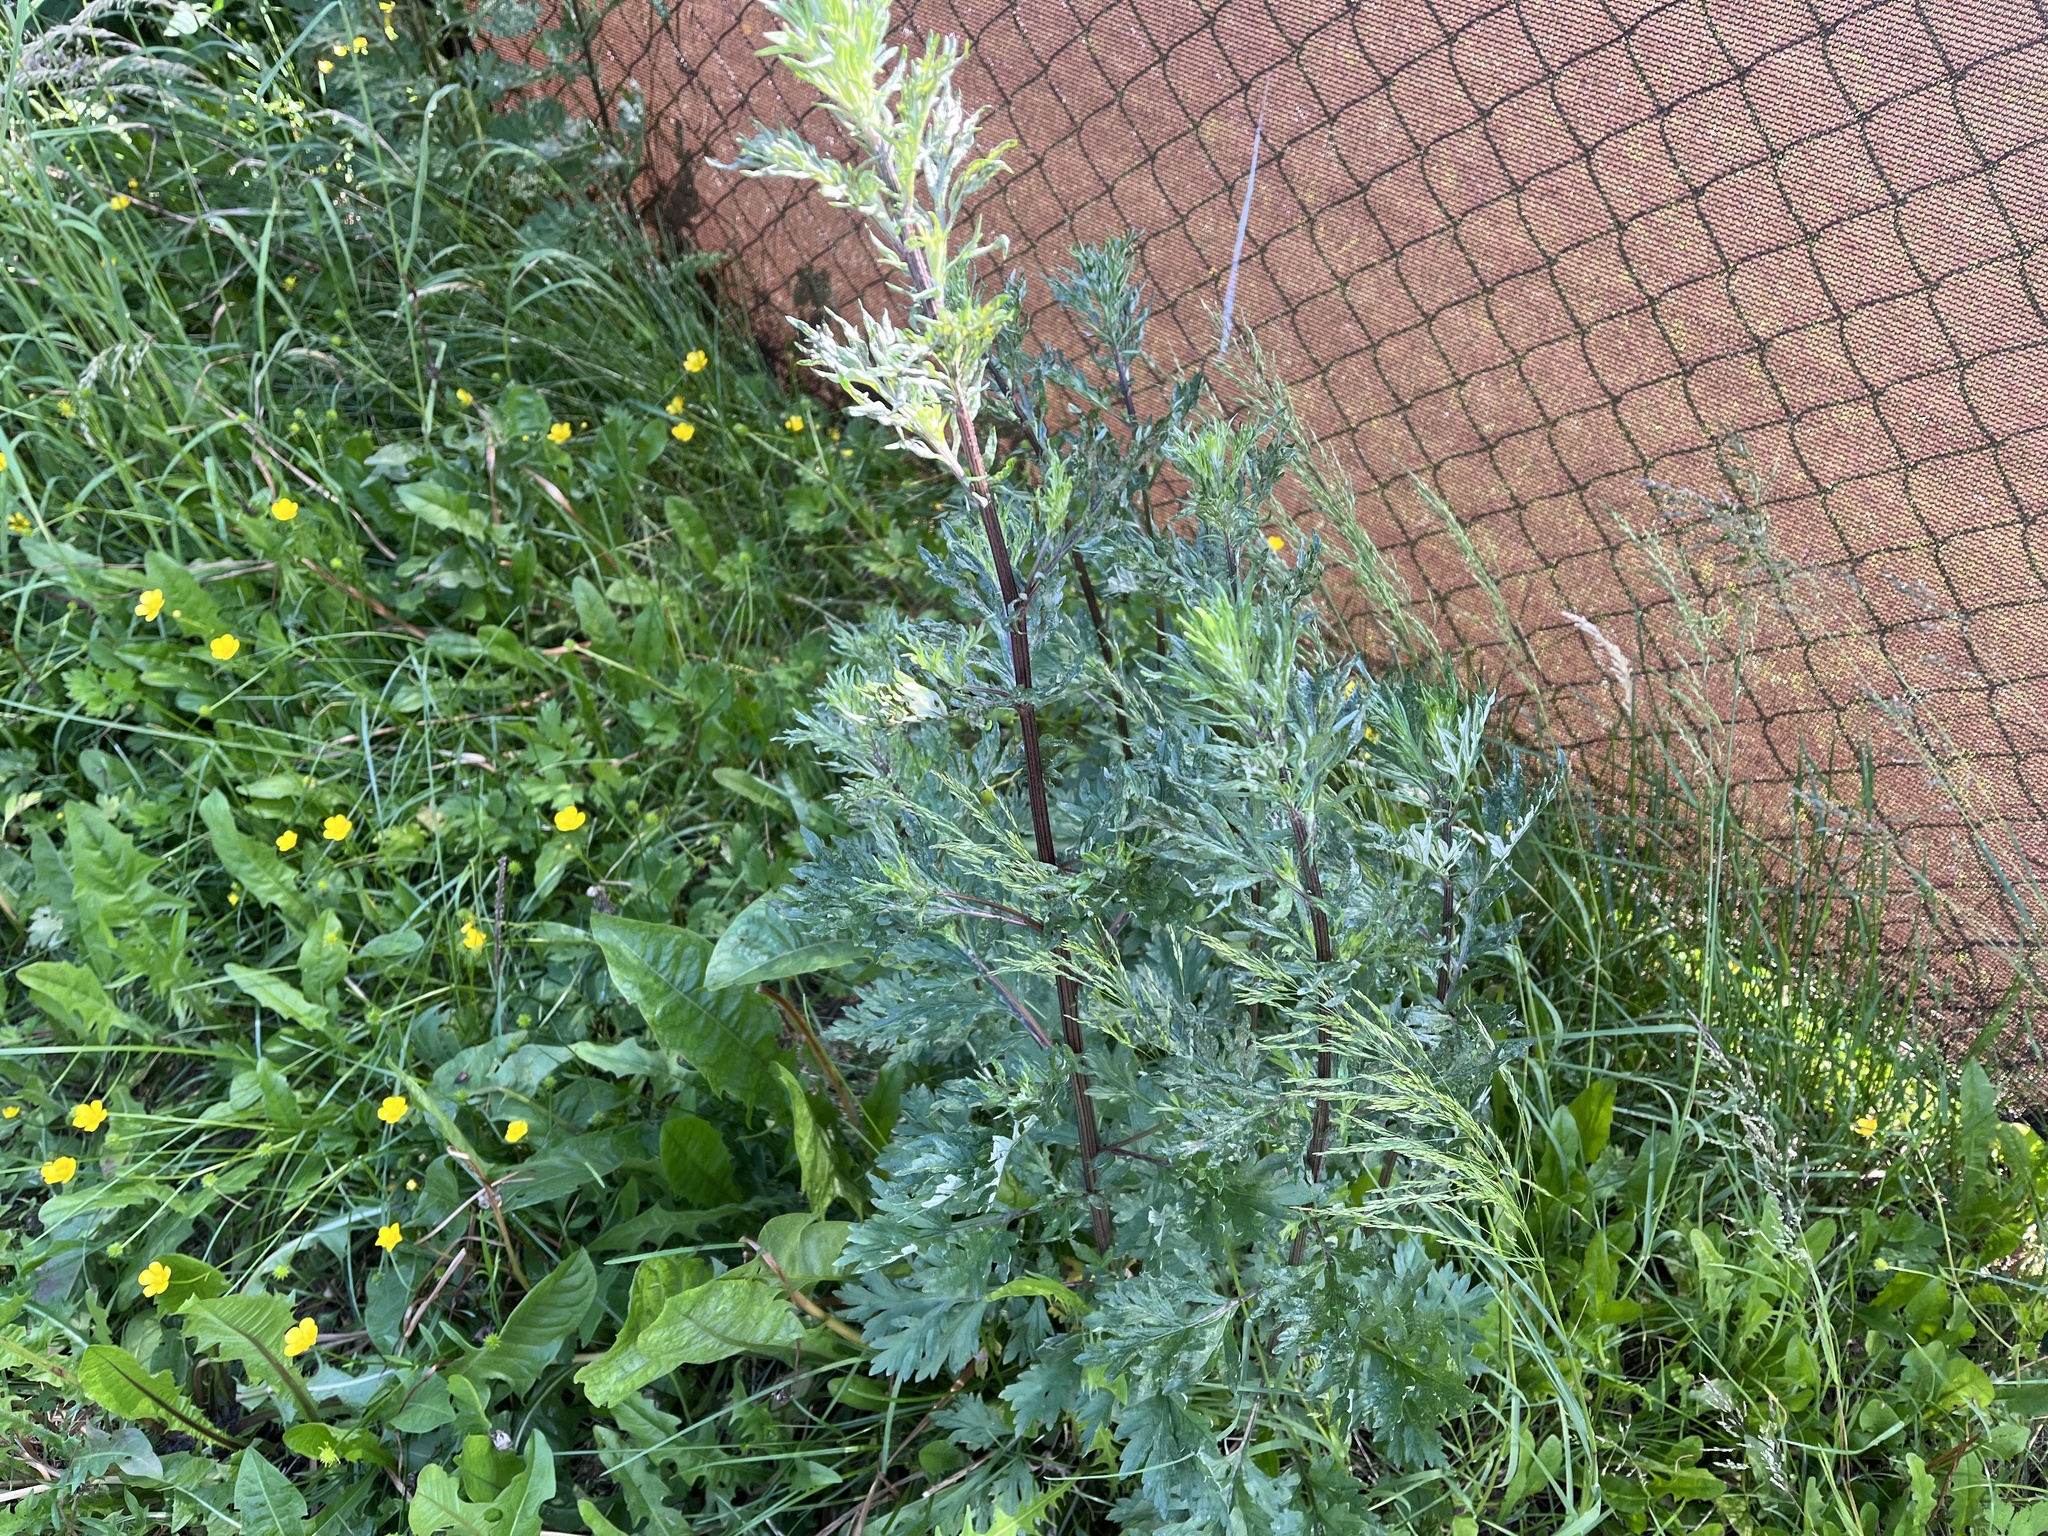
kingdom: Plantae
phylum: Tracheophyta
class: Magnoliopsida
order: Asterales
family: Asteraceae
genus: Artemisia
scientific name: Artemisia vulgaris
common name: Mugwort
